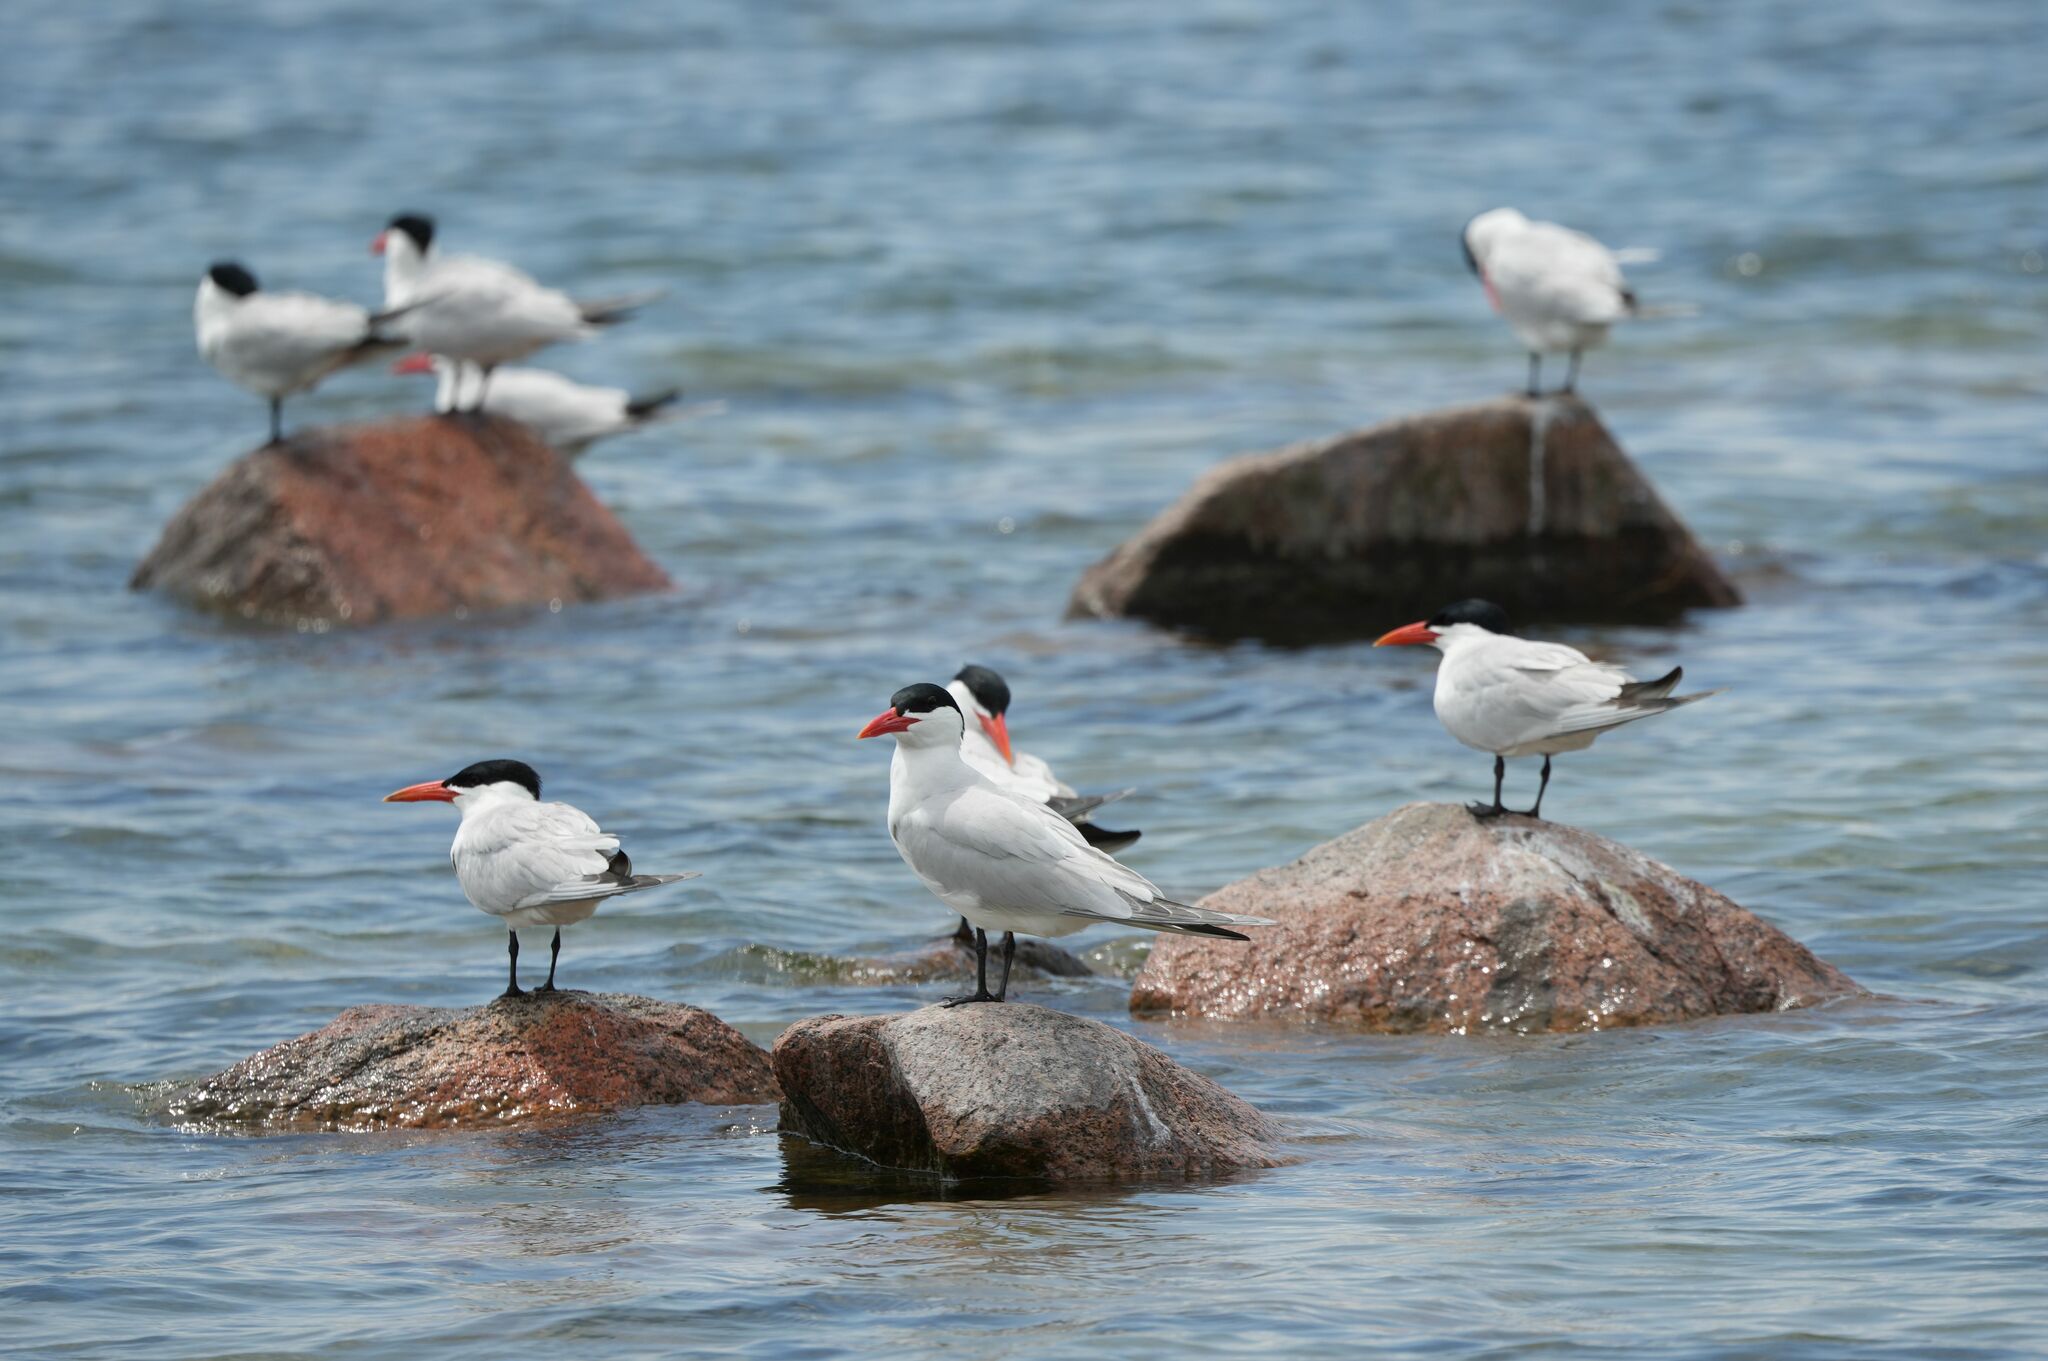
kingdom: Animalia
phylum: Chordata
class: Aves
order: Charadriiformes
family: Laridae
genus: Hydroprogne
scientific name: Hydroprogne caspia
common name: Caspian tern
